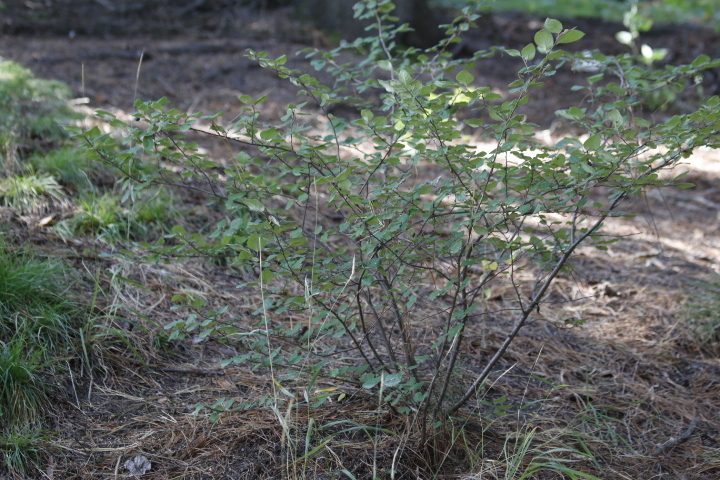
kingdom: Plantae
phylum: Tracheophyta
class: Magnoliopsida
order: Rosales
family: Rosaceae
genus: Cotoneaster
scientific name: Cotoneaster melanocarpus
